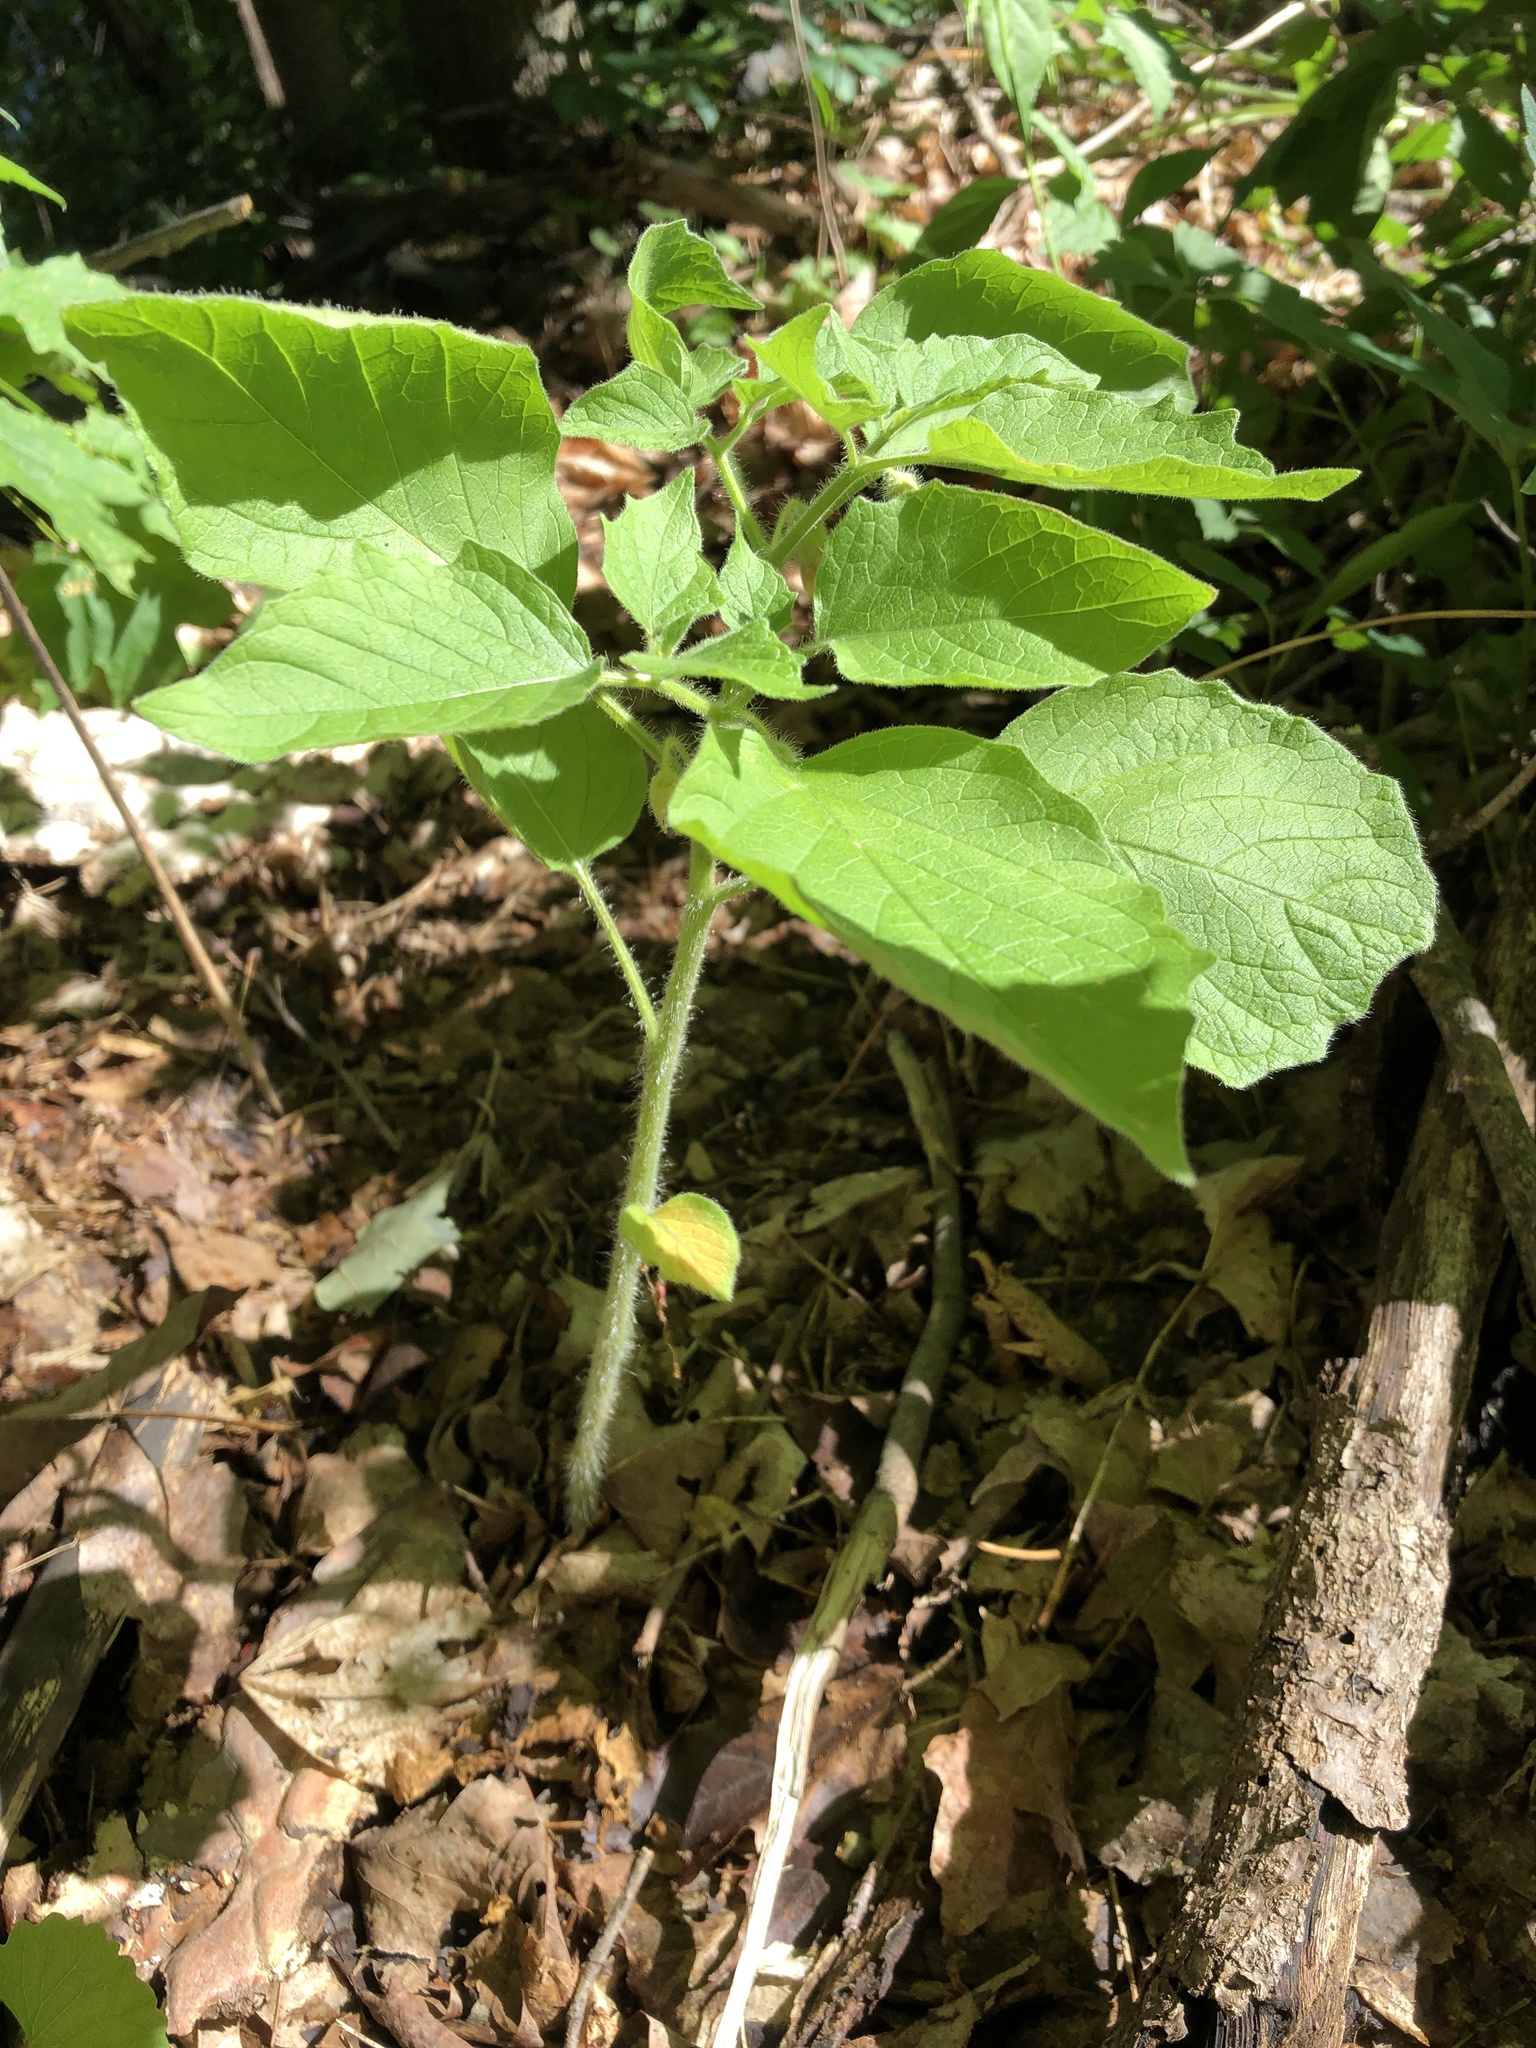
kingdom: Plantae
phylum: Tracheophyta
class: Magnoliopsida
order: Solanales
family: Solanaceae
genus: Physalis
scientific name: Physalis heterophylla
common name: Clammy ground-cherry
